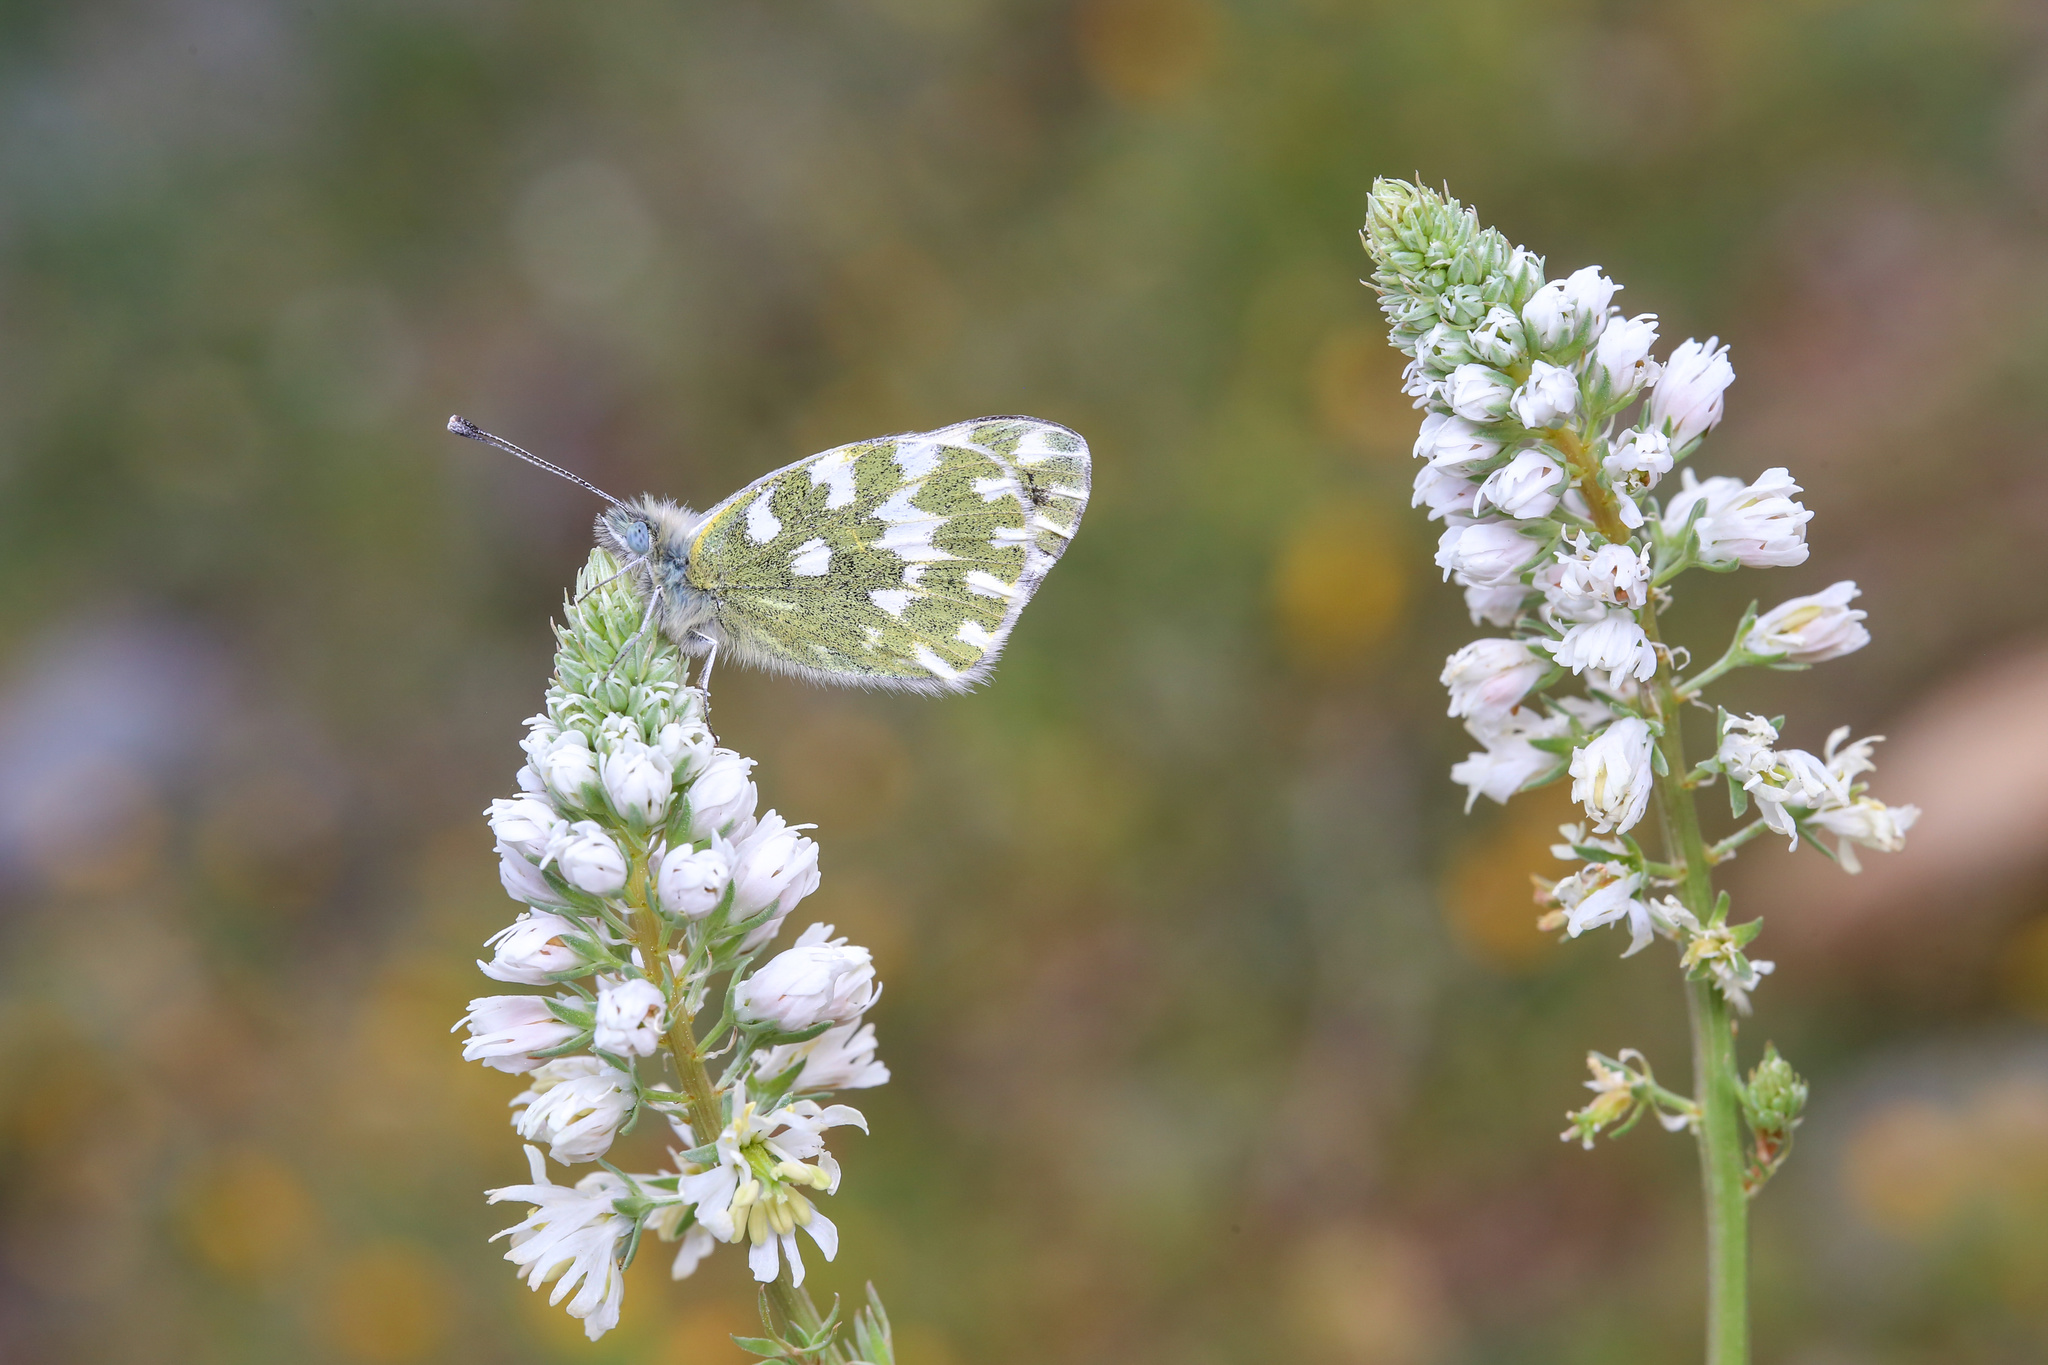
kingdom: Animalia
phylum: Arthropoda
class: Insecta
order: Lepidoptera
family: Pieridae
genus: Pontia
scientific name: Pontia edusa
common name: Eastern bath white
